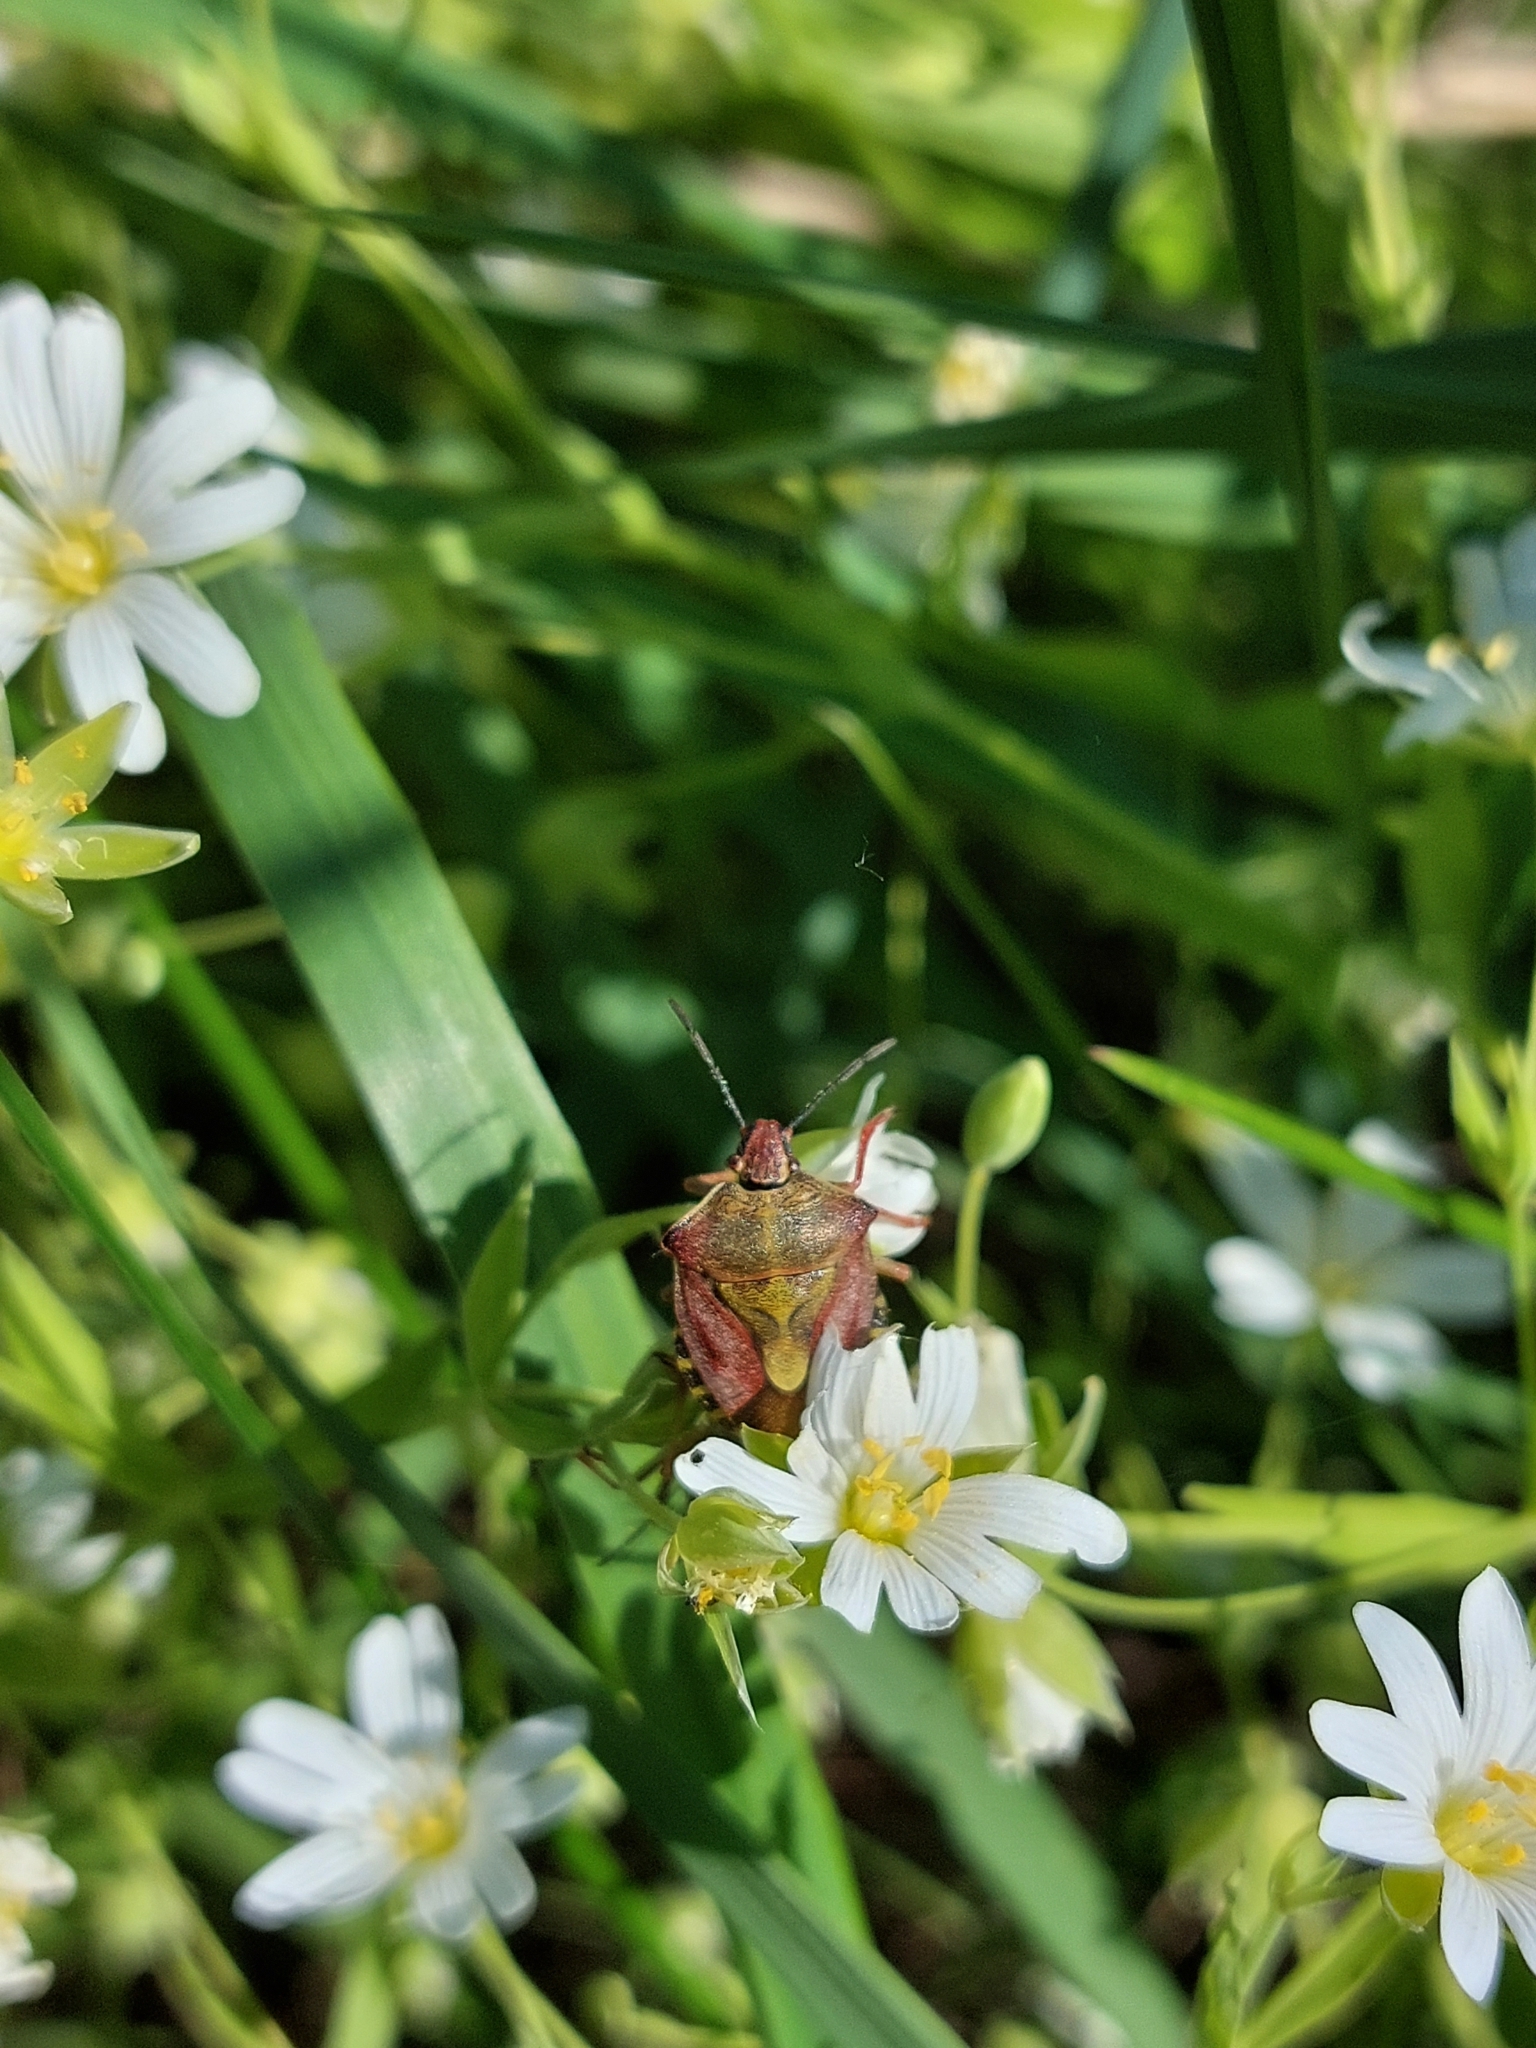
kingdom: Animalia
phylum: Arthropoda
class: Insecta
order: Hemiptera
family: Pentatomidae
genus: Carpocoris
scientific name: Carpocoris purpureipennis
